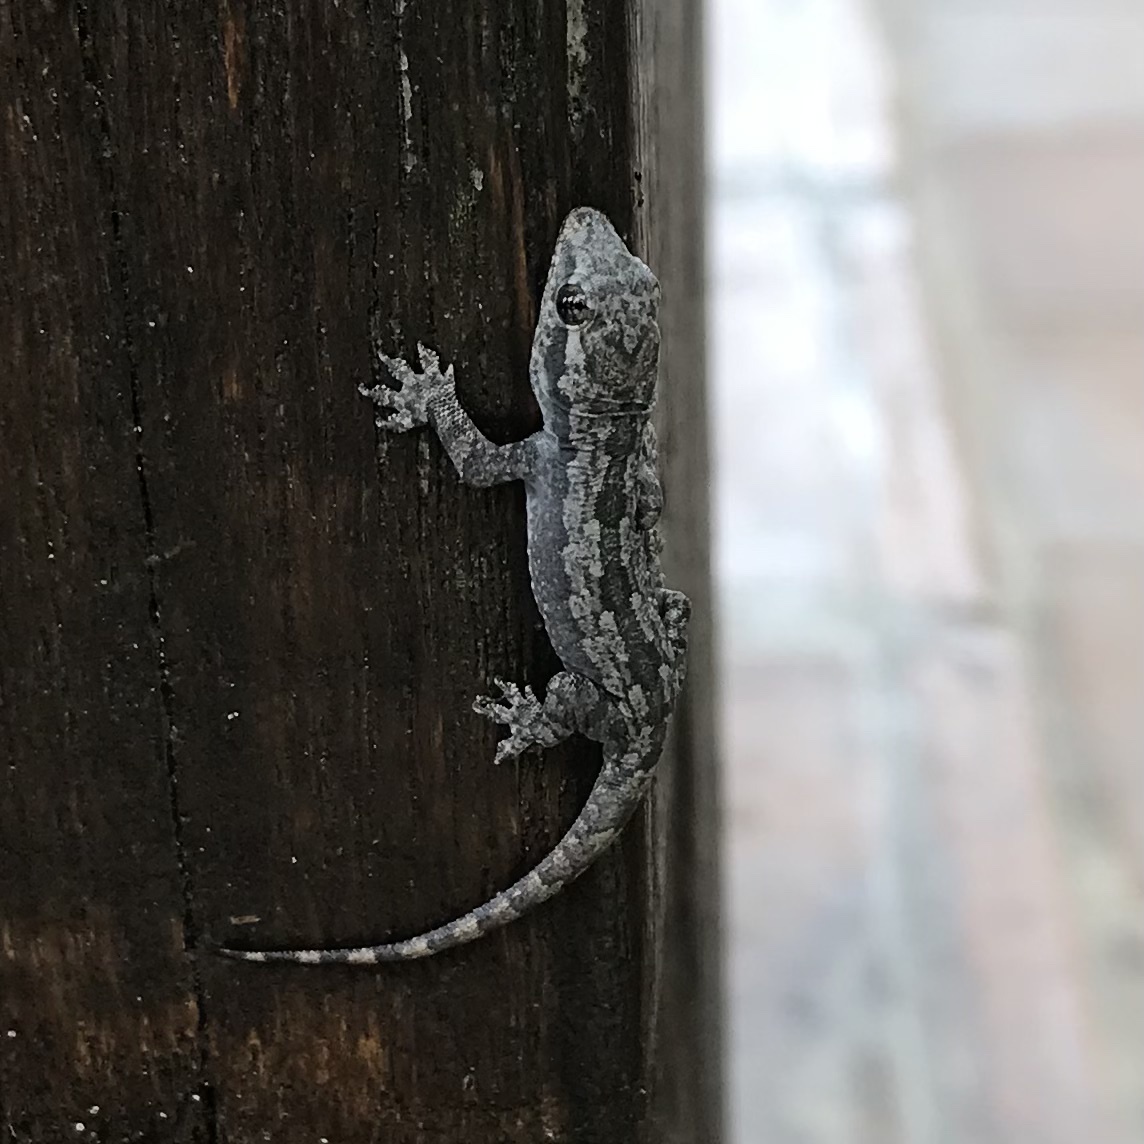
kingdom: Animalia
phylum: Chordata
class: Squamata
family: Gekkonidae
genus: Hemidactylus
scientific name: Hemidactylus platyurus
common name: Flat-tailed house gecko
